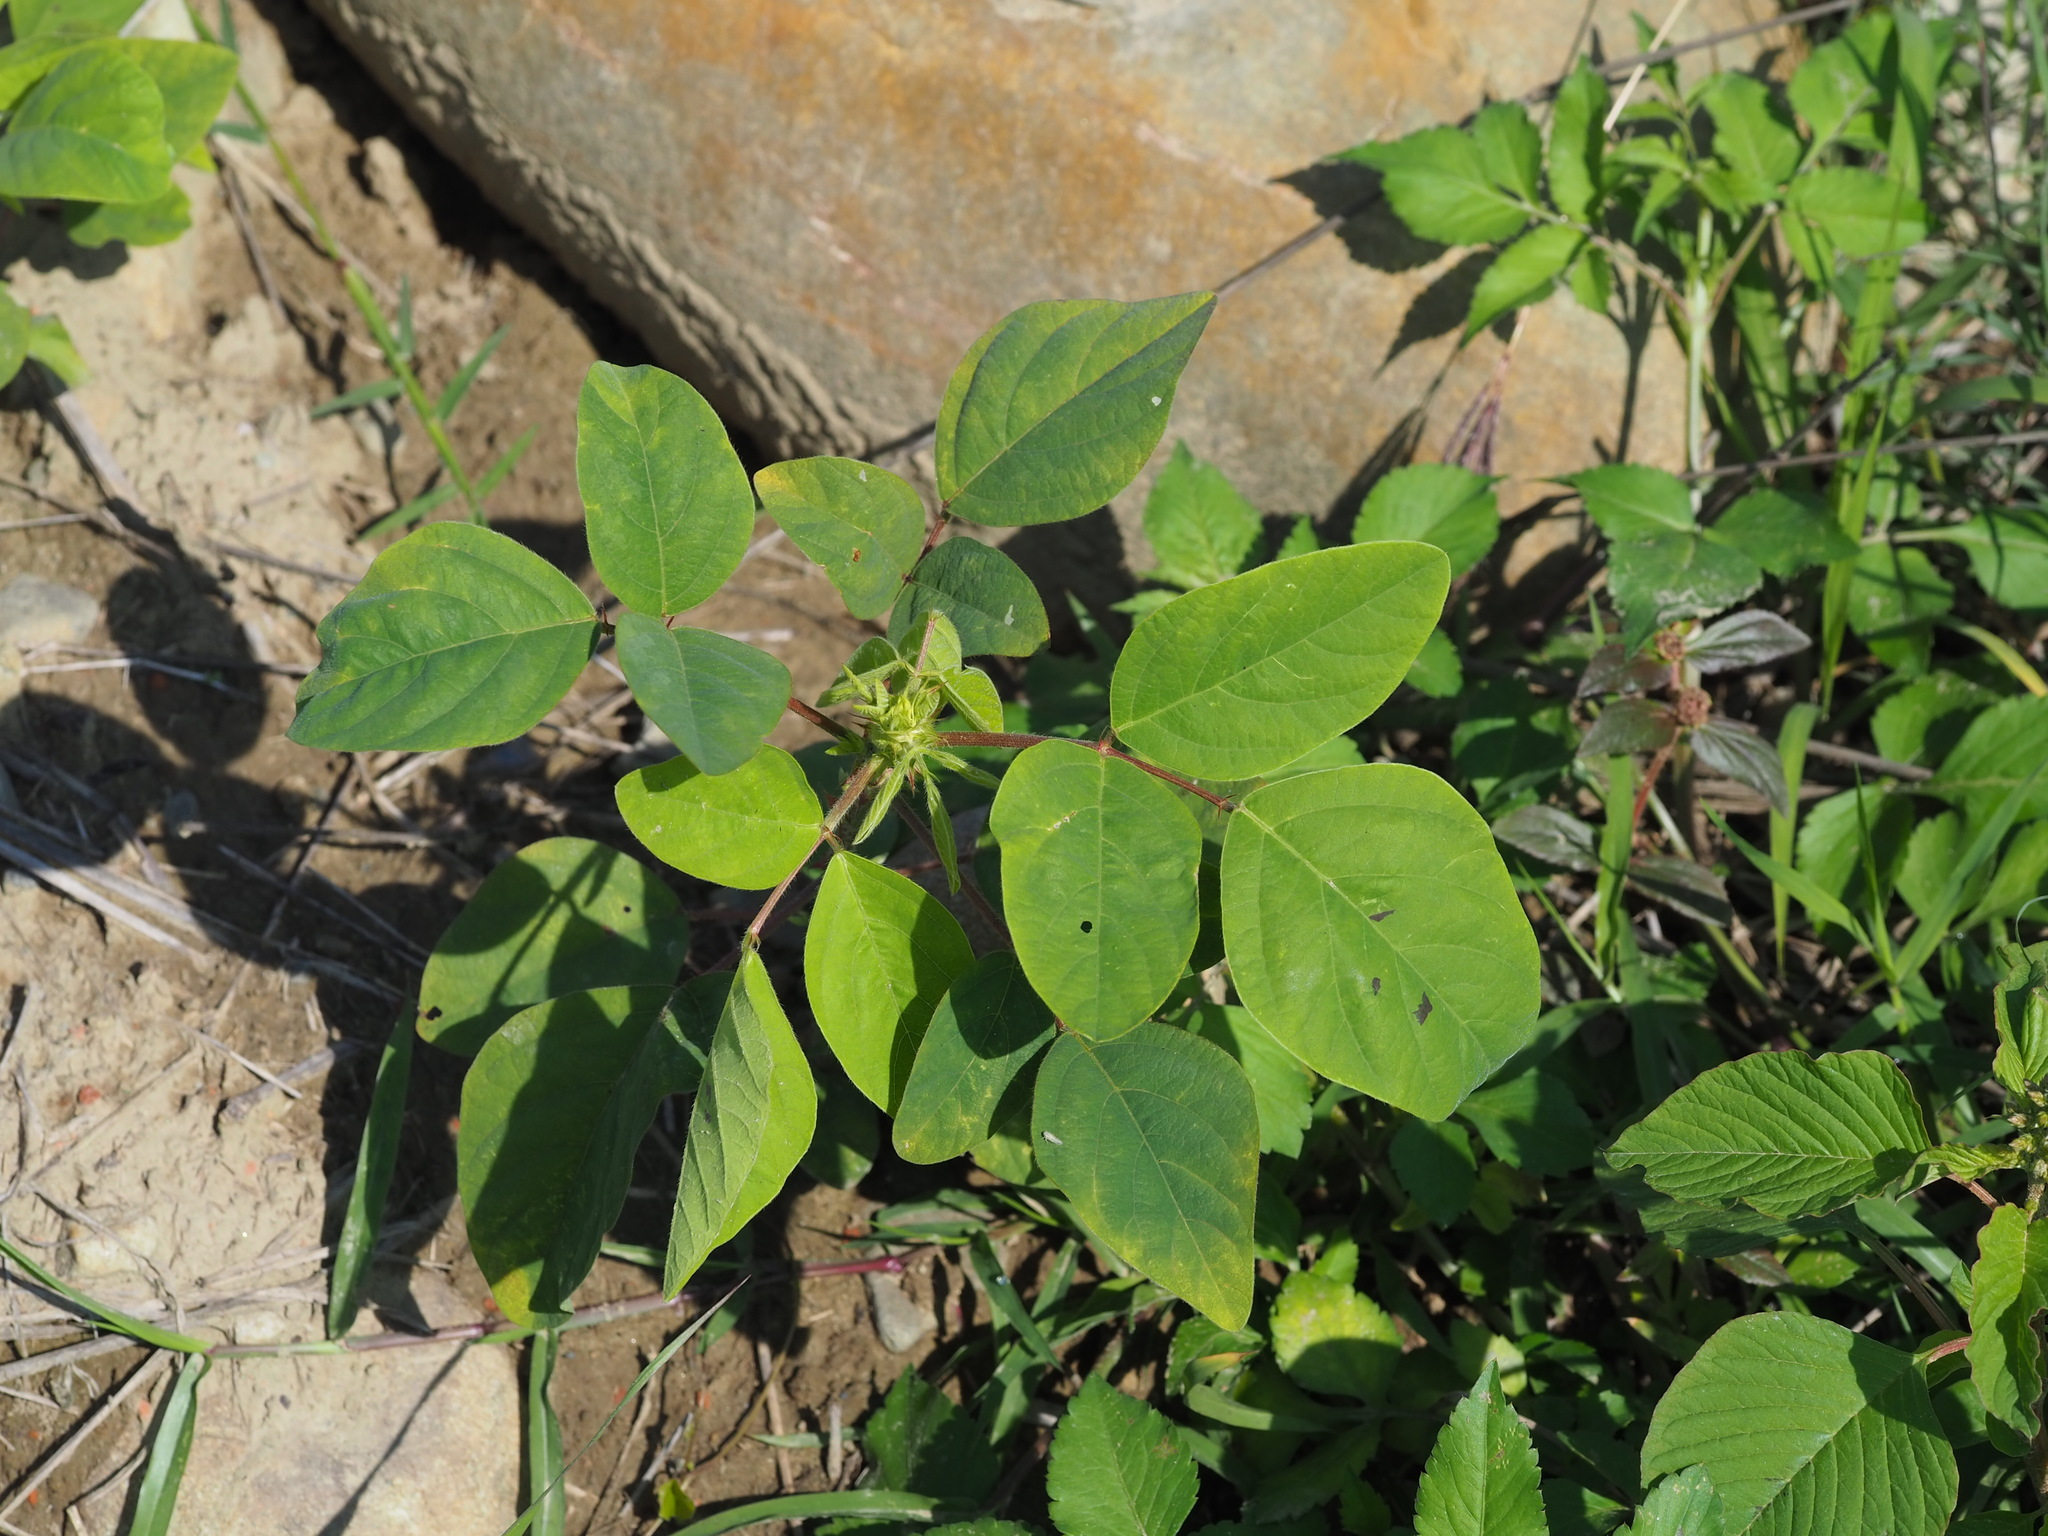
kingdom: Plantae
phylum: Tracheophyta
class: Magnoliopsida
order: Fabales
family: Fabaceae
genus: Desmodium
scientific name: Desmodium tortuosum
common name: Dixie ticktrefoil
